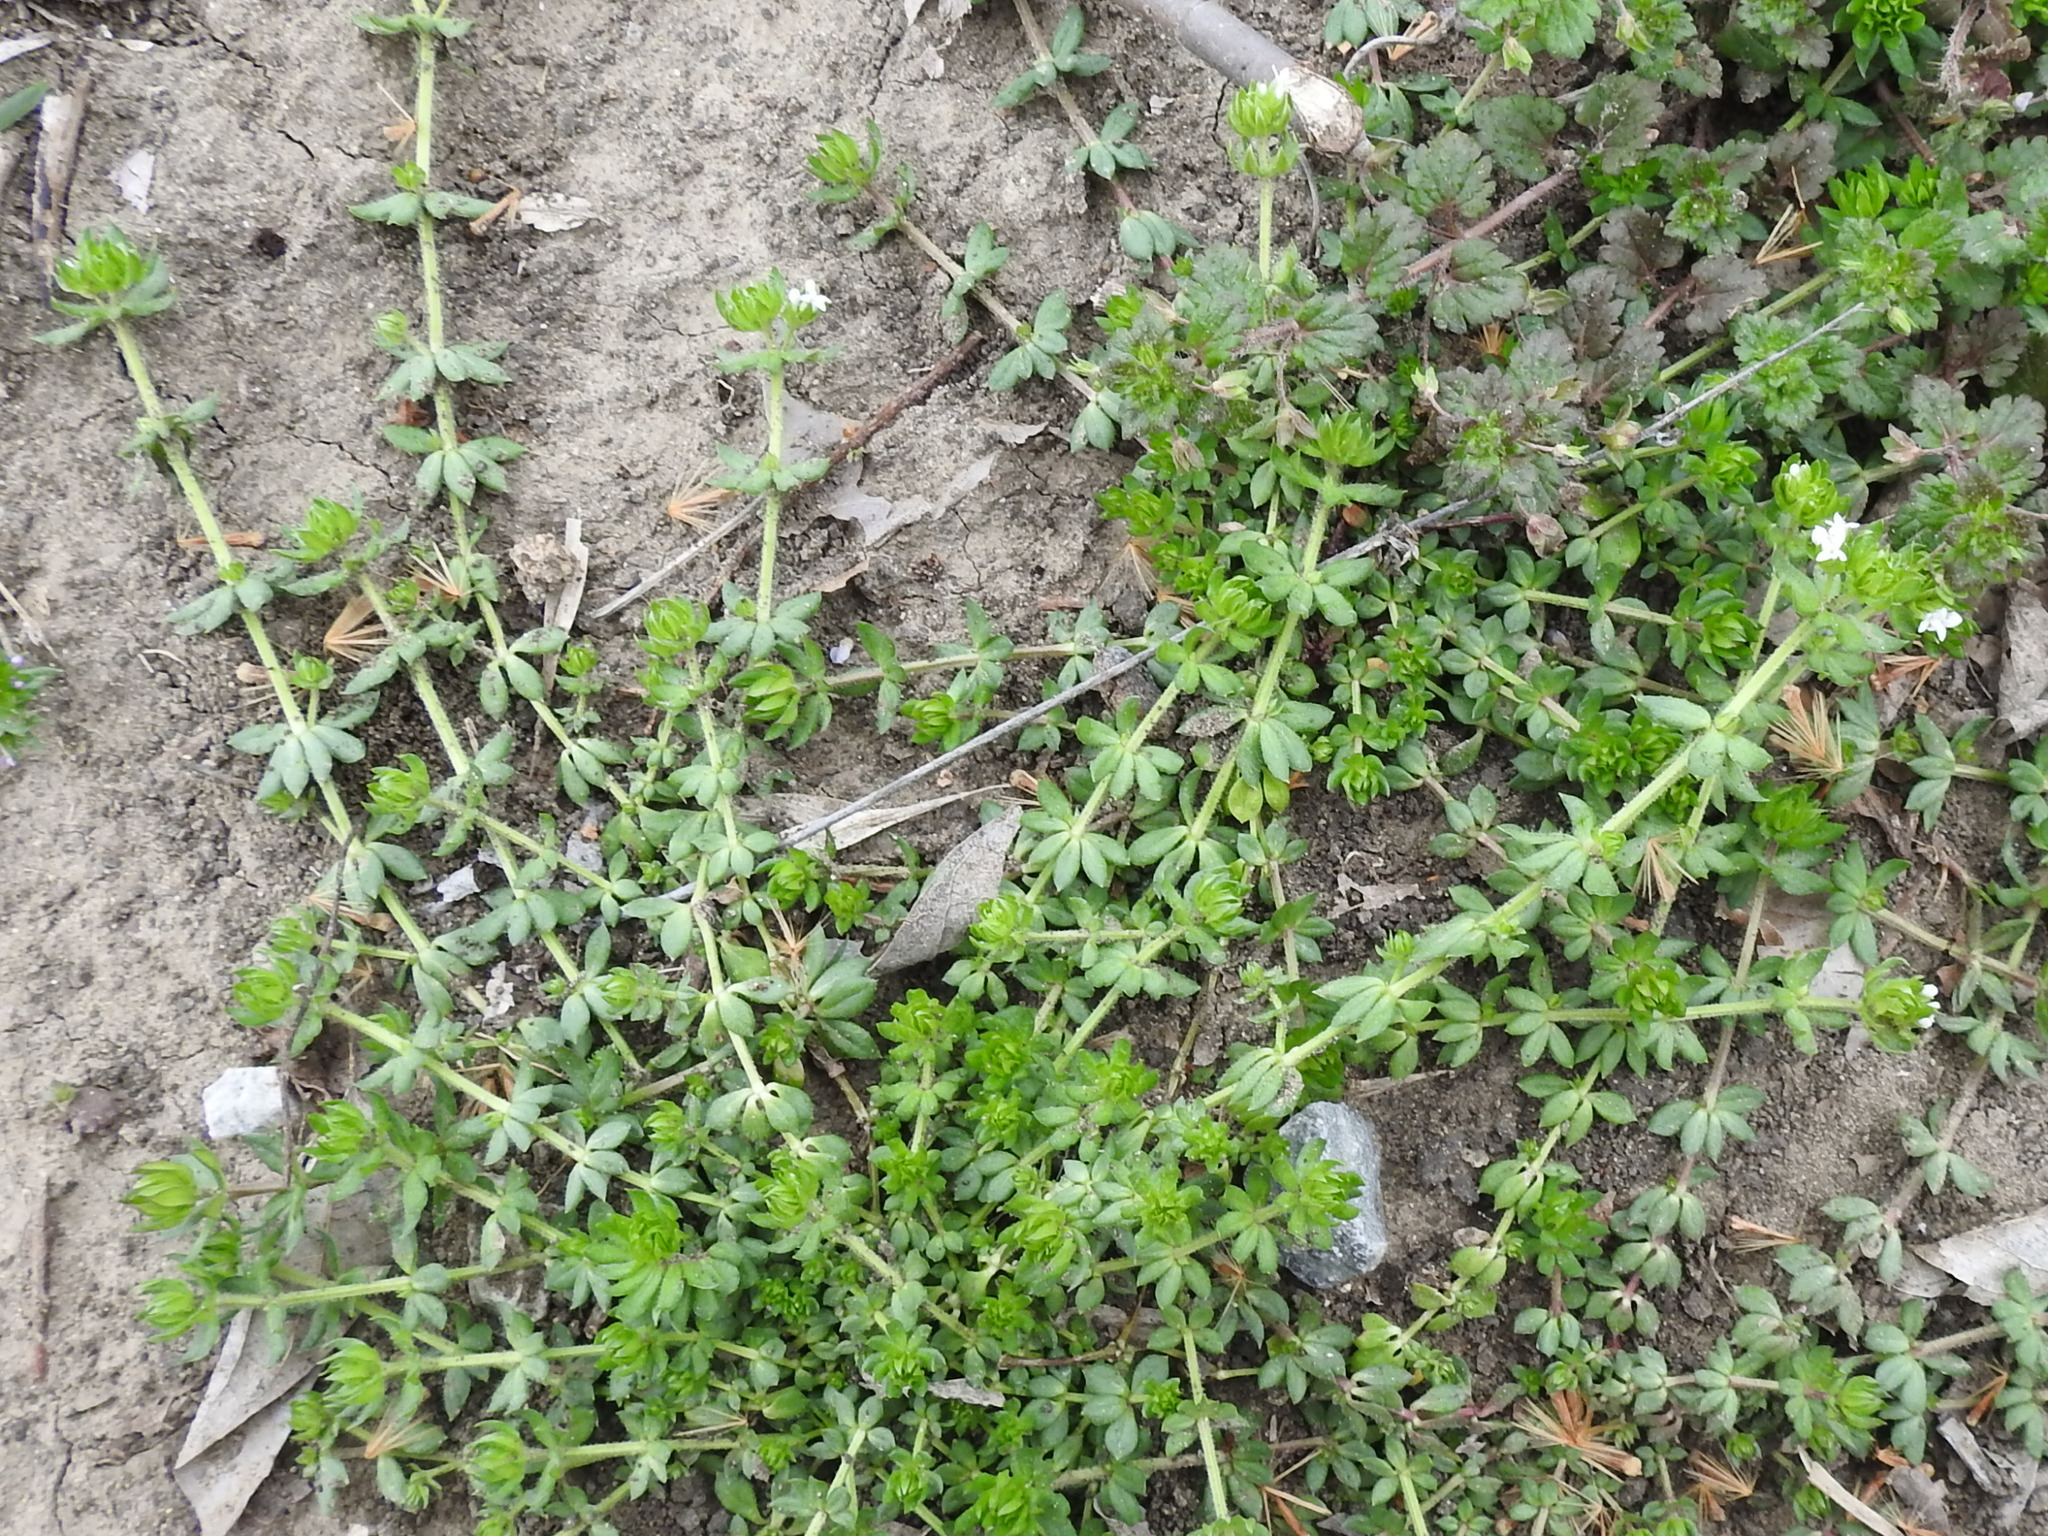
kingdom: Plantae
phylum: Tracheophyta
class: Magnoliopsida
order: Gentianales
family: Rubiaceae
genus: Sherardia
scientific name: Sherardia arvensis
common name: Field madder
